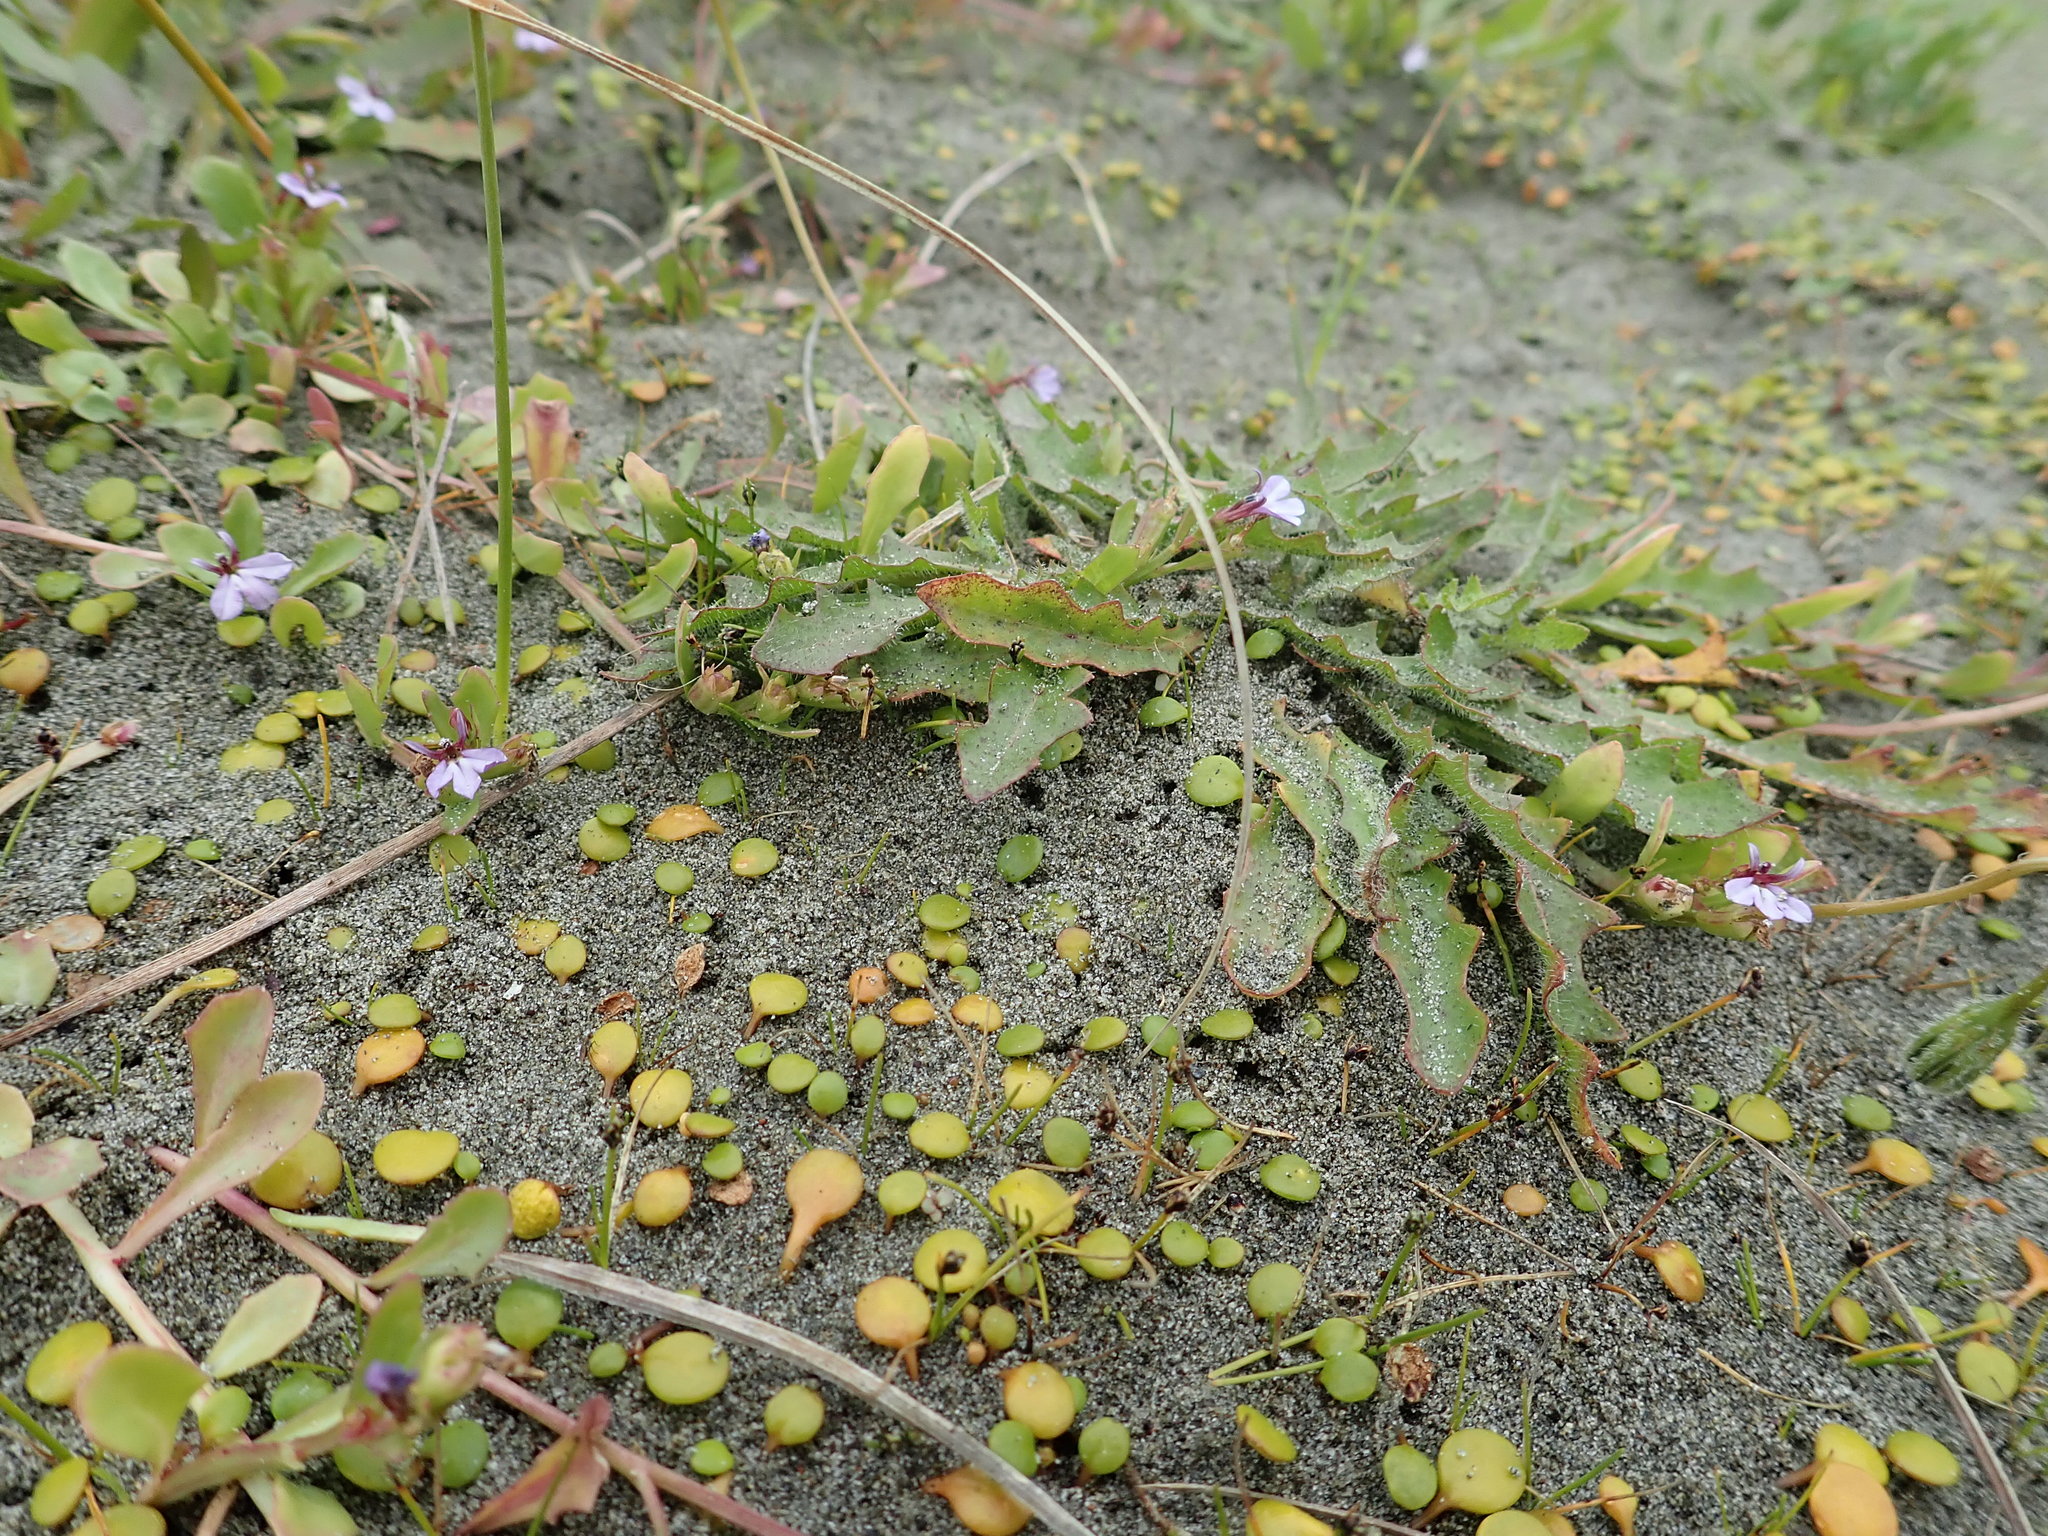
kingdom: Plantae
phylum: Tracheophyta
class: Magnoliopsida
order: Asterales
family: Campanulaceae
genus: Lobelia
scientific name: Lobelia anceps
